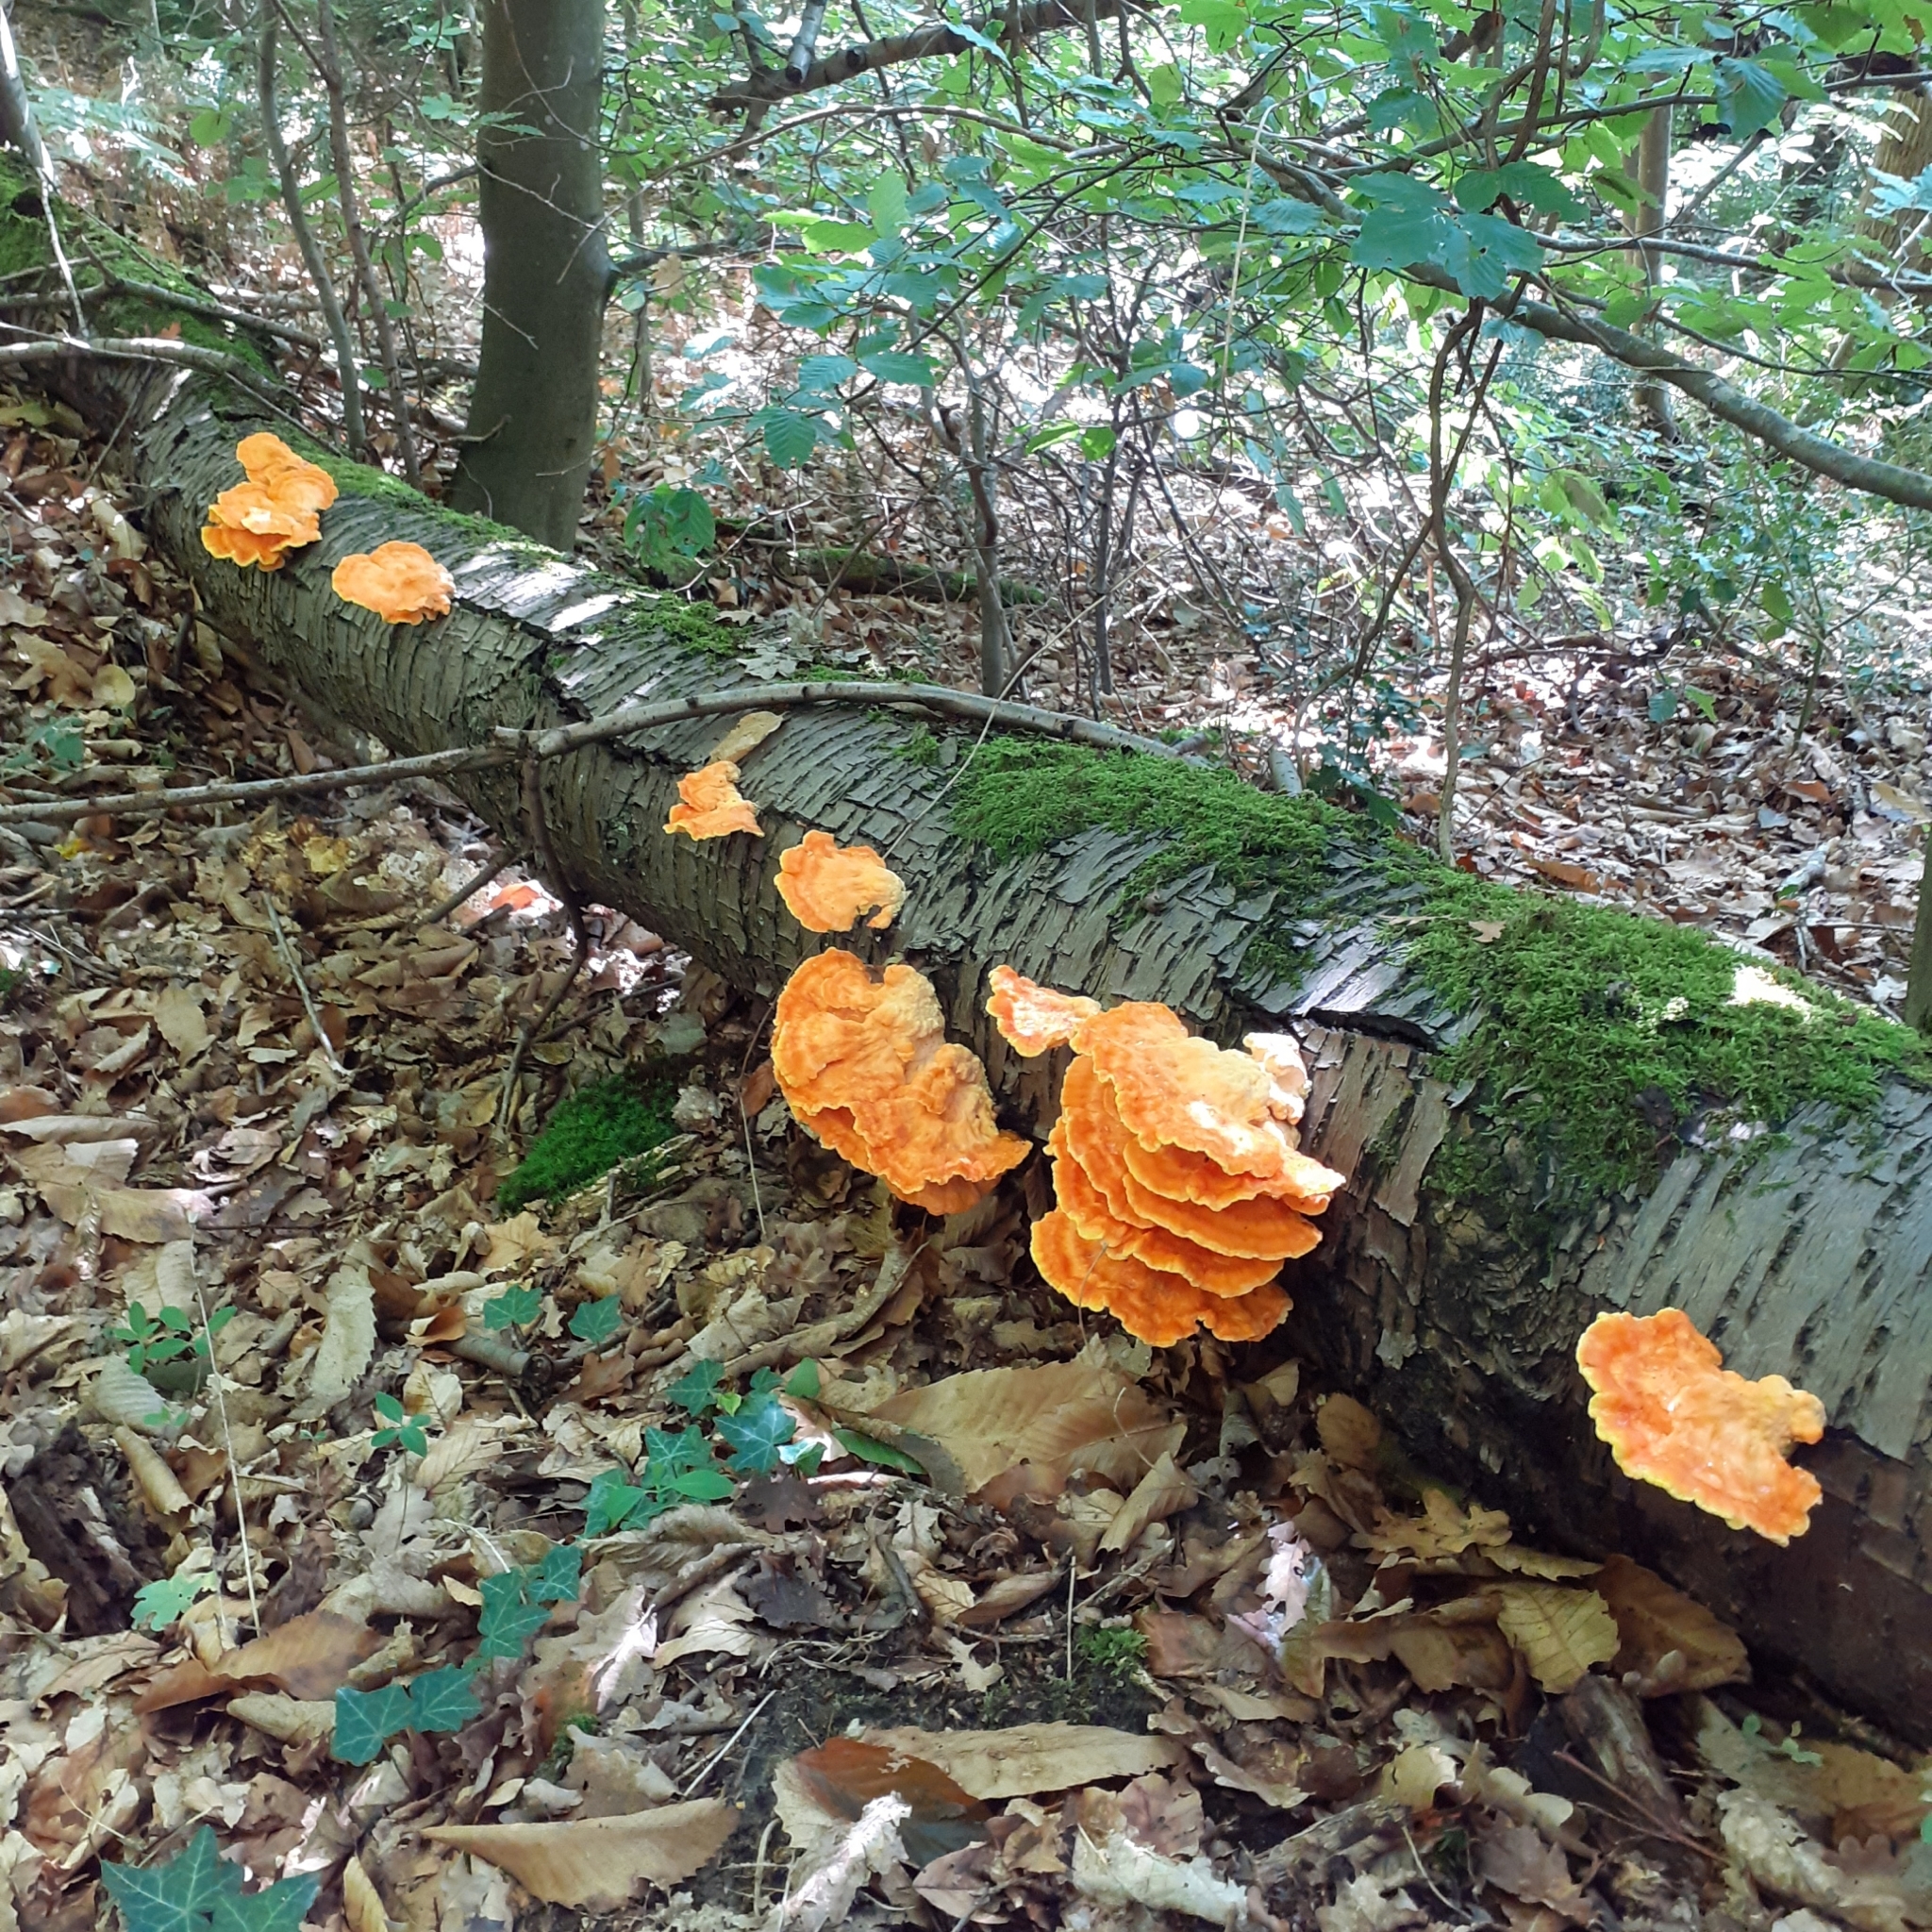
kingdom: Fungi
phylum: Basidiomycota
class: Agaricomycetes
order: Polyporales
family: Laetiporaceae
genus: Laetiporus
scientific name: Laetiporus sulphureus
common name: Chicken of the woods
